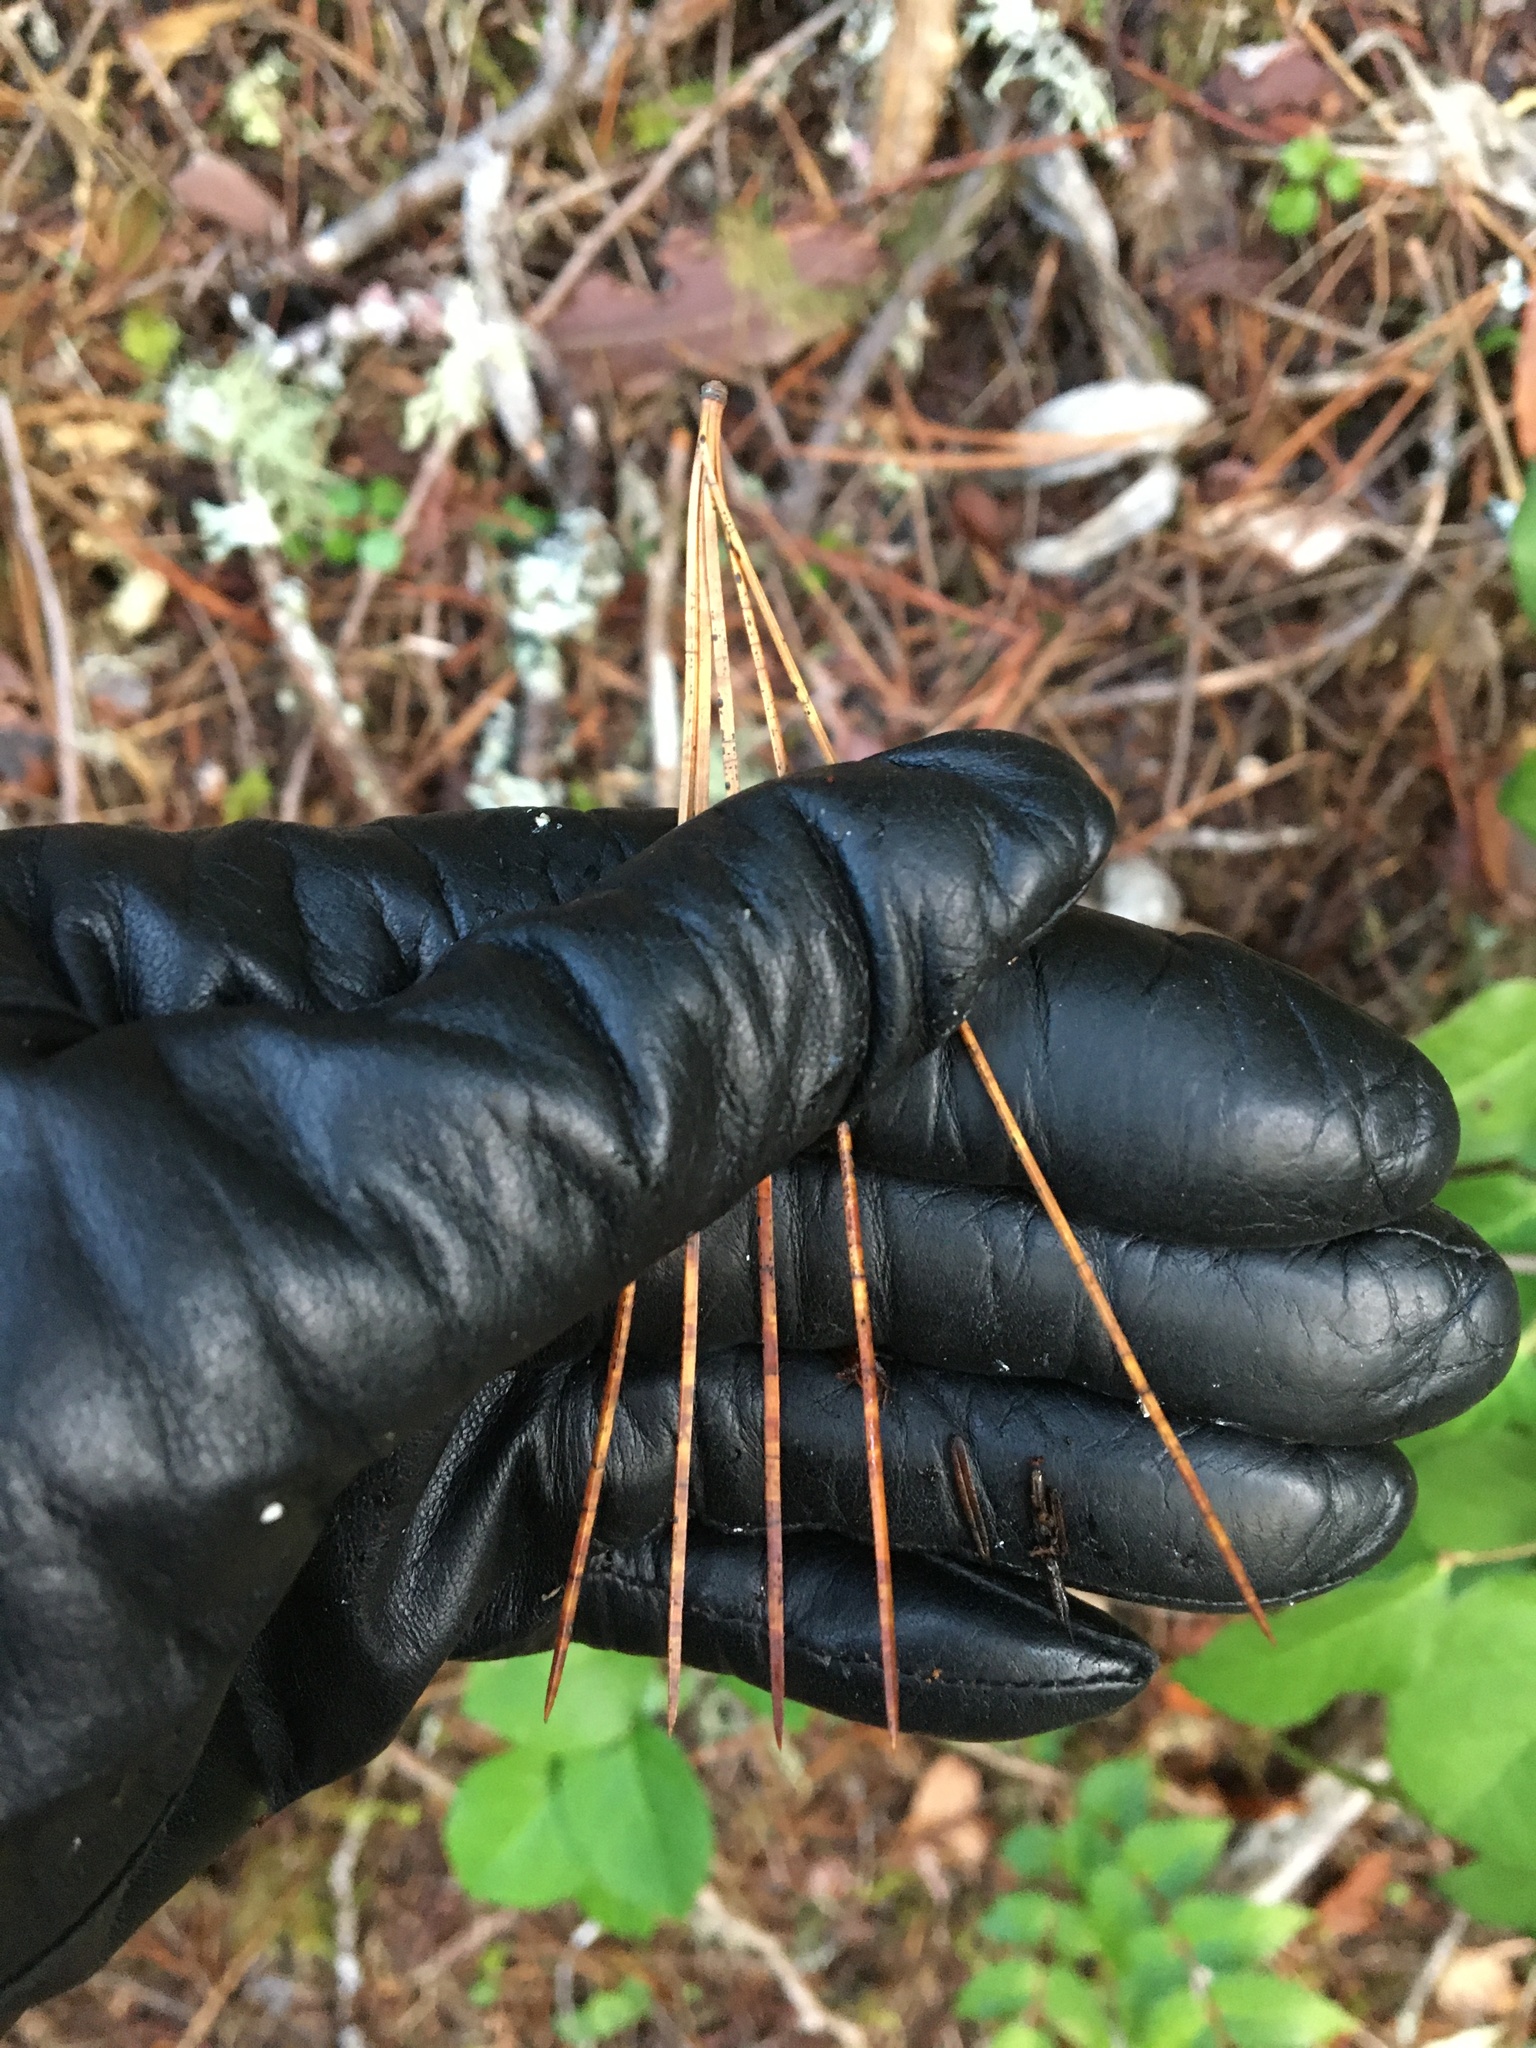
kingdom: Plantae
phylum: Tracheophyta
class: Pinopsida
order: Pinales
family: Pinaceae
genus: Pinus
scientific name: Pinus lambertiana
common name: Sugar pine
